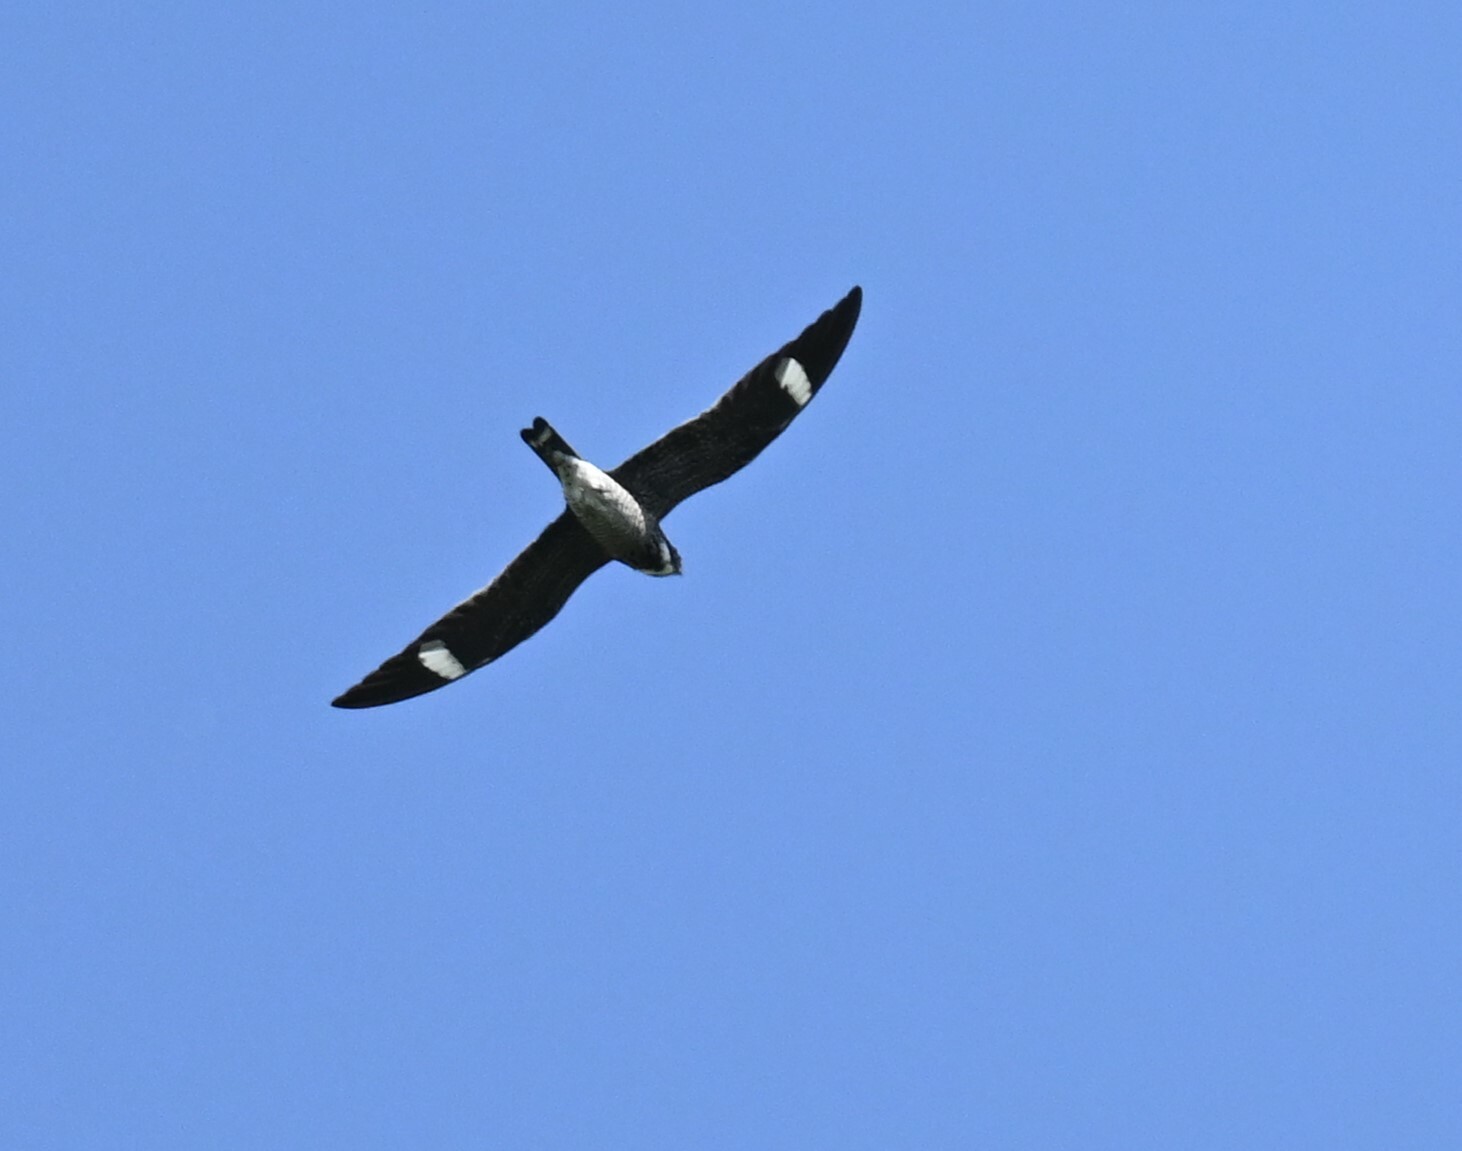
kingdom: Animalia
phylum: Chordata
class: Aves
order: Caprimulgiformes
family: Caprimulgidae
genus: Chordeiles
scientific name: Chordeiles minor
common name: Common nighthawk
